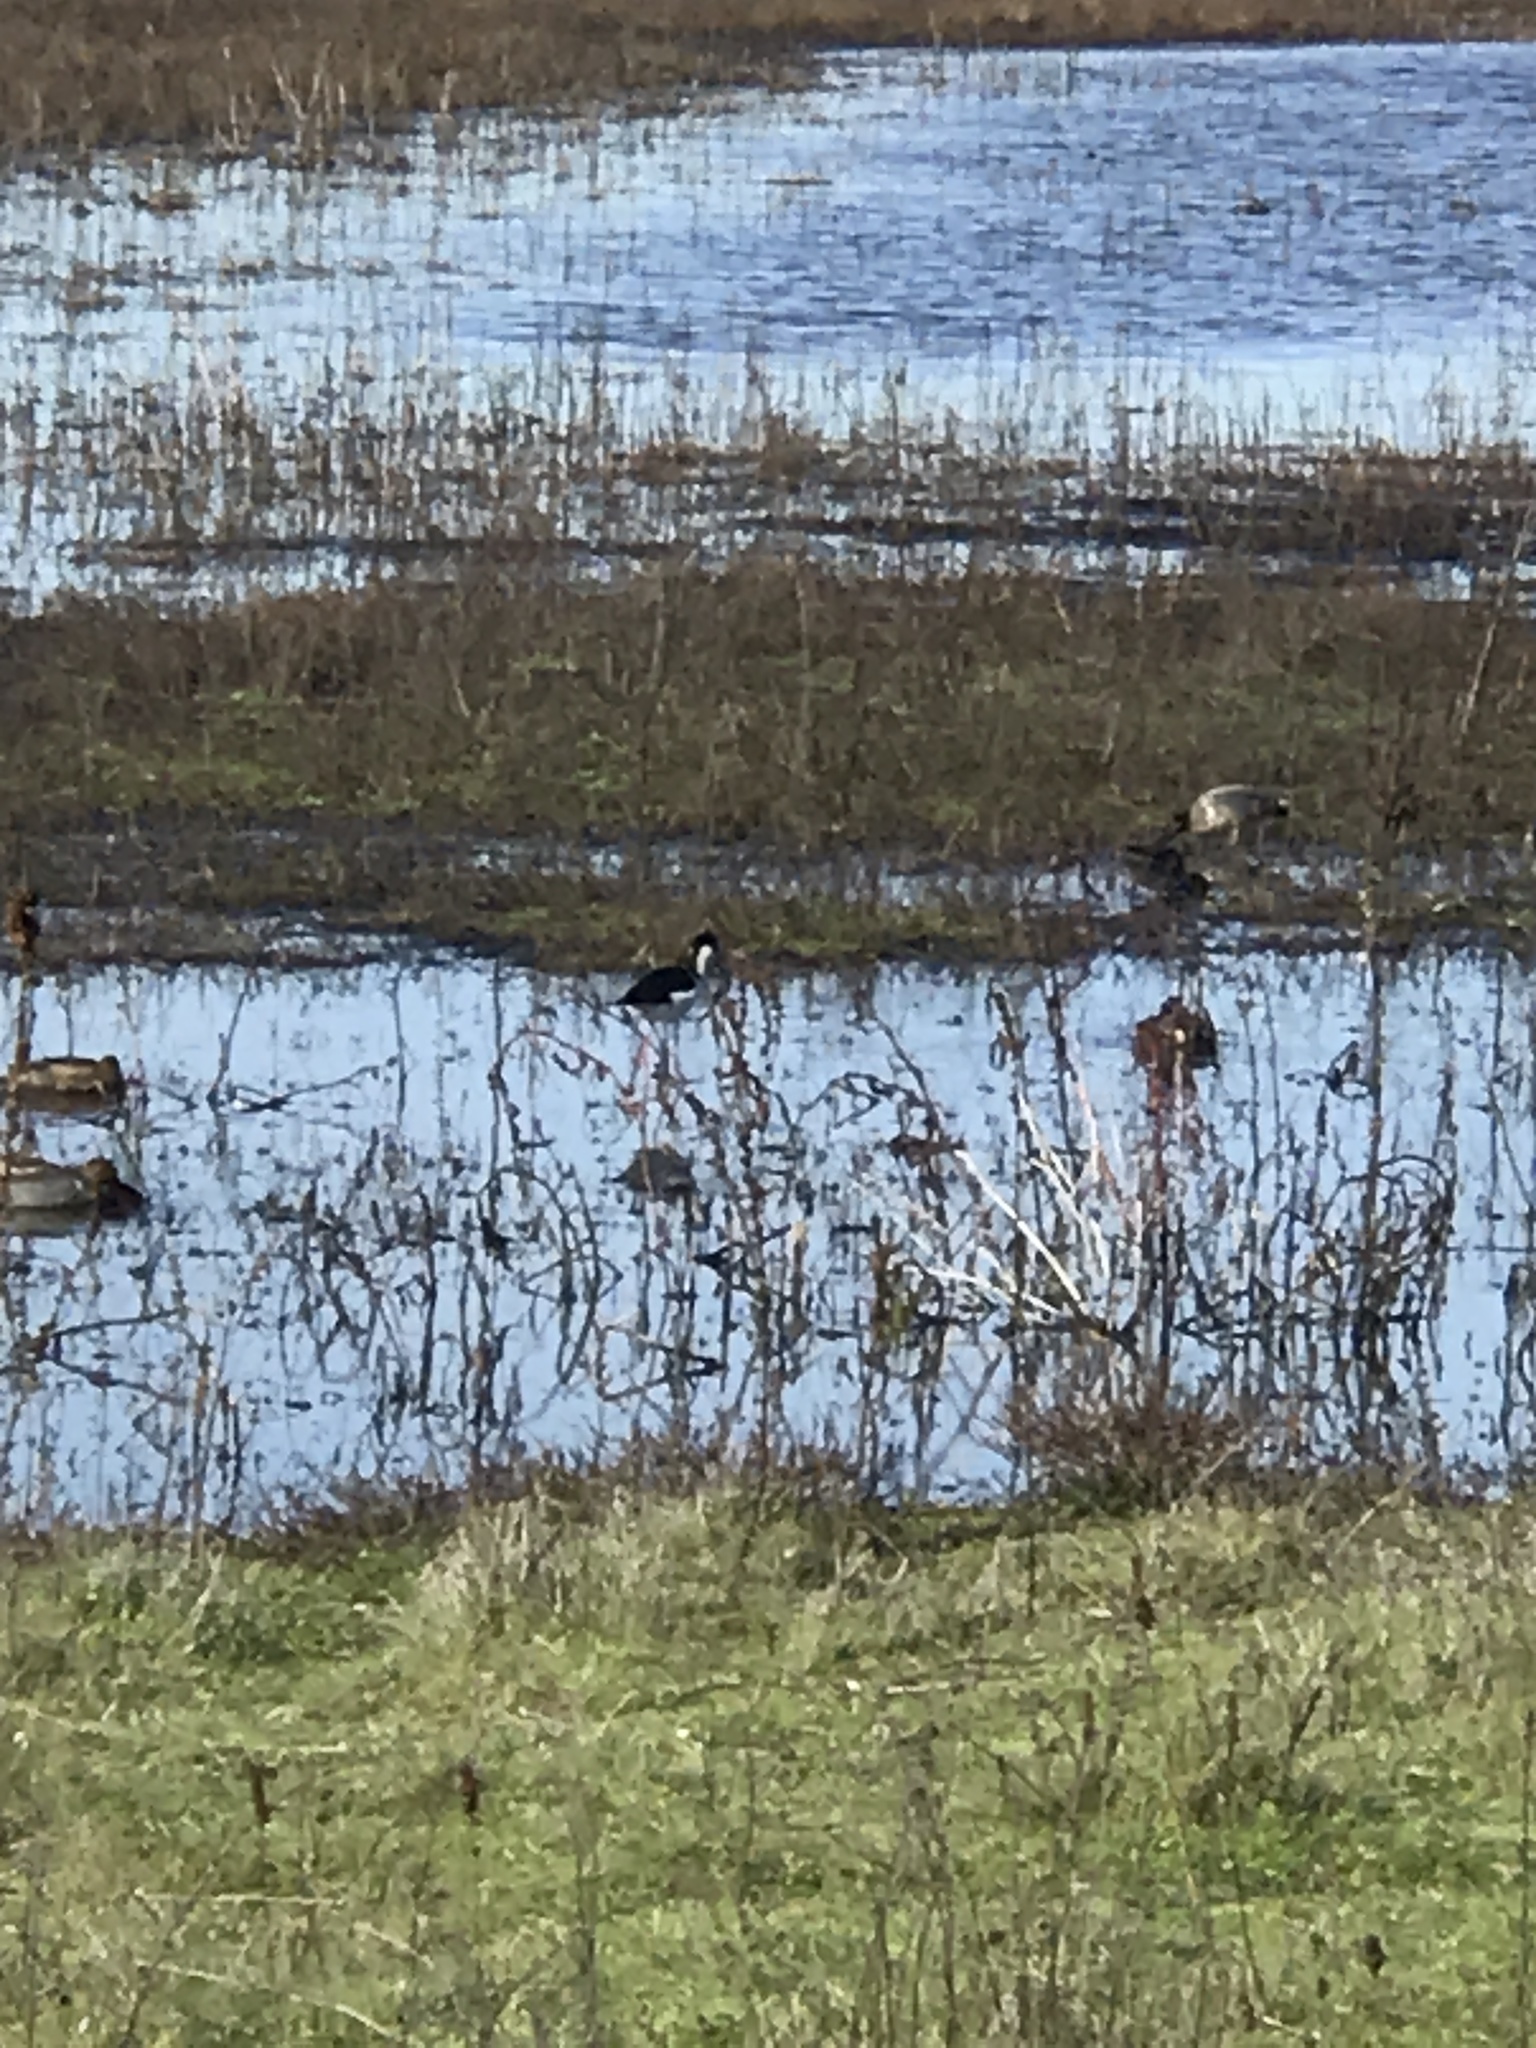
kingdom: Animalia
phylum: Chordata
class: Aves
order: Charadriiformes
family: Recurvirostridae
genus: Himantopus
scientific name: Himantopus mexicanus
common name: Black-necked stilt
